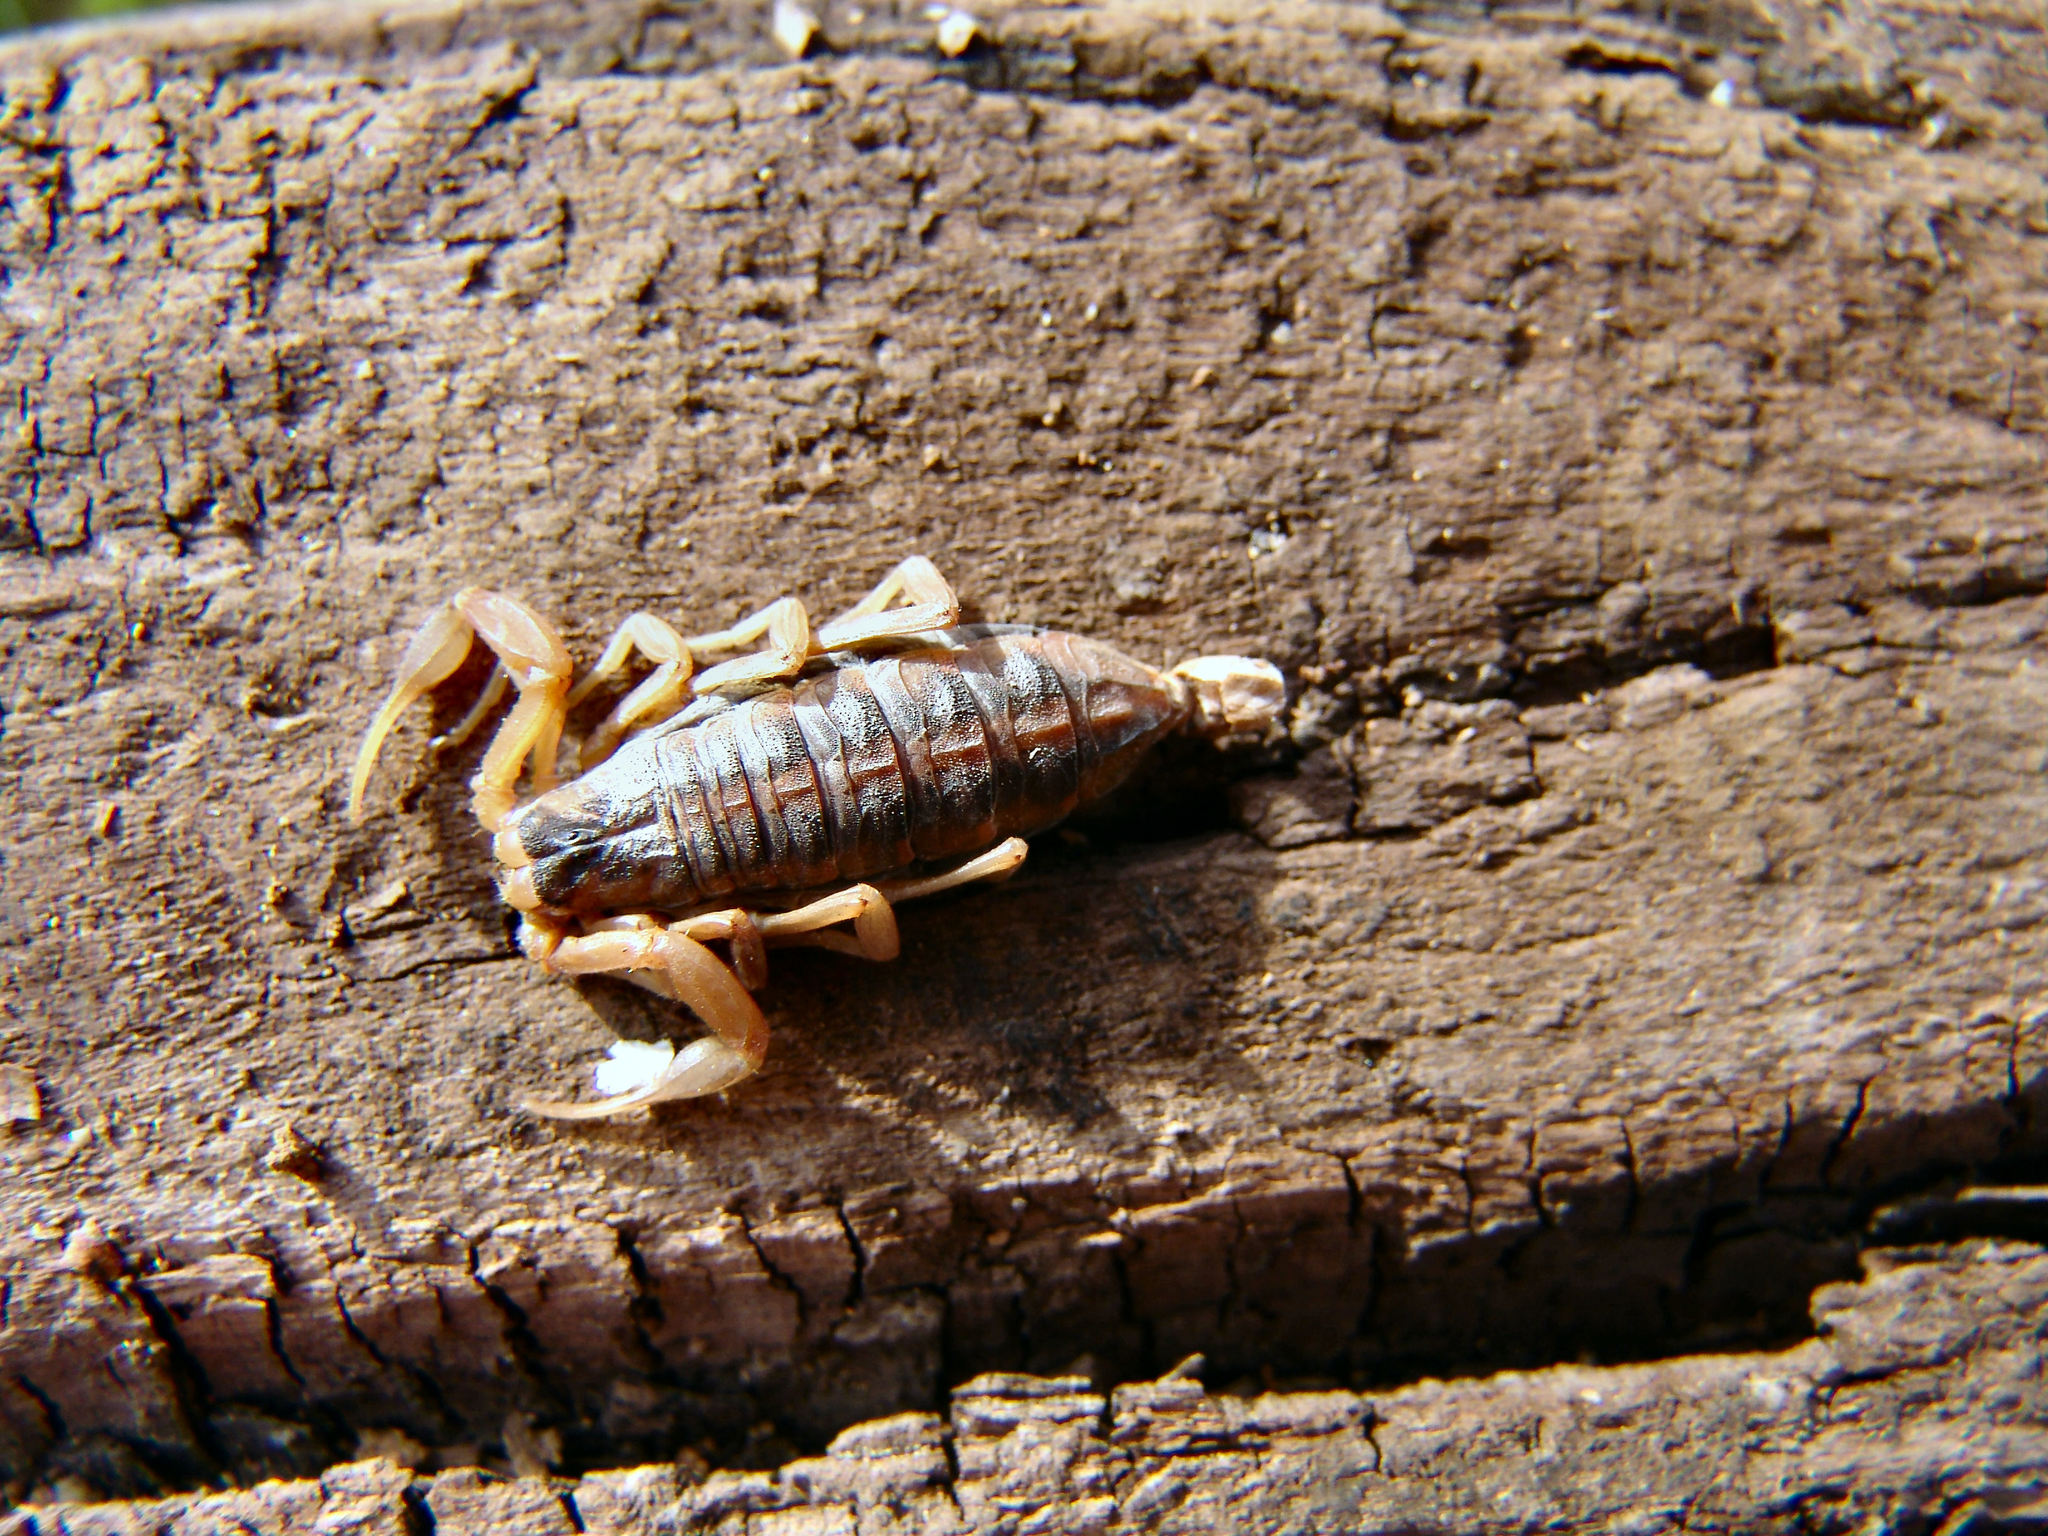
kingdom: Animalia
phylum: Arthropoda
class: Arachnida
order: Scorpiones
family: Buthidae
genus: Centruroides
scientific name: Centruroides vittatus
